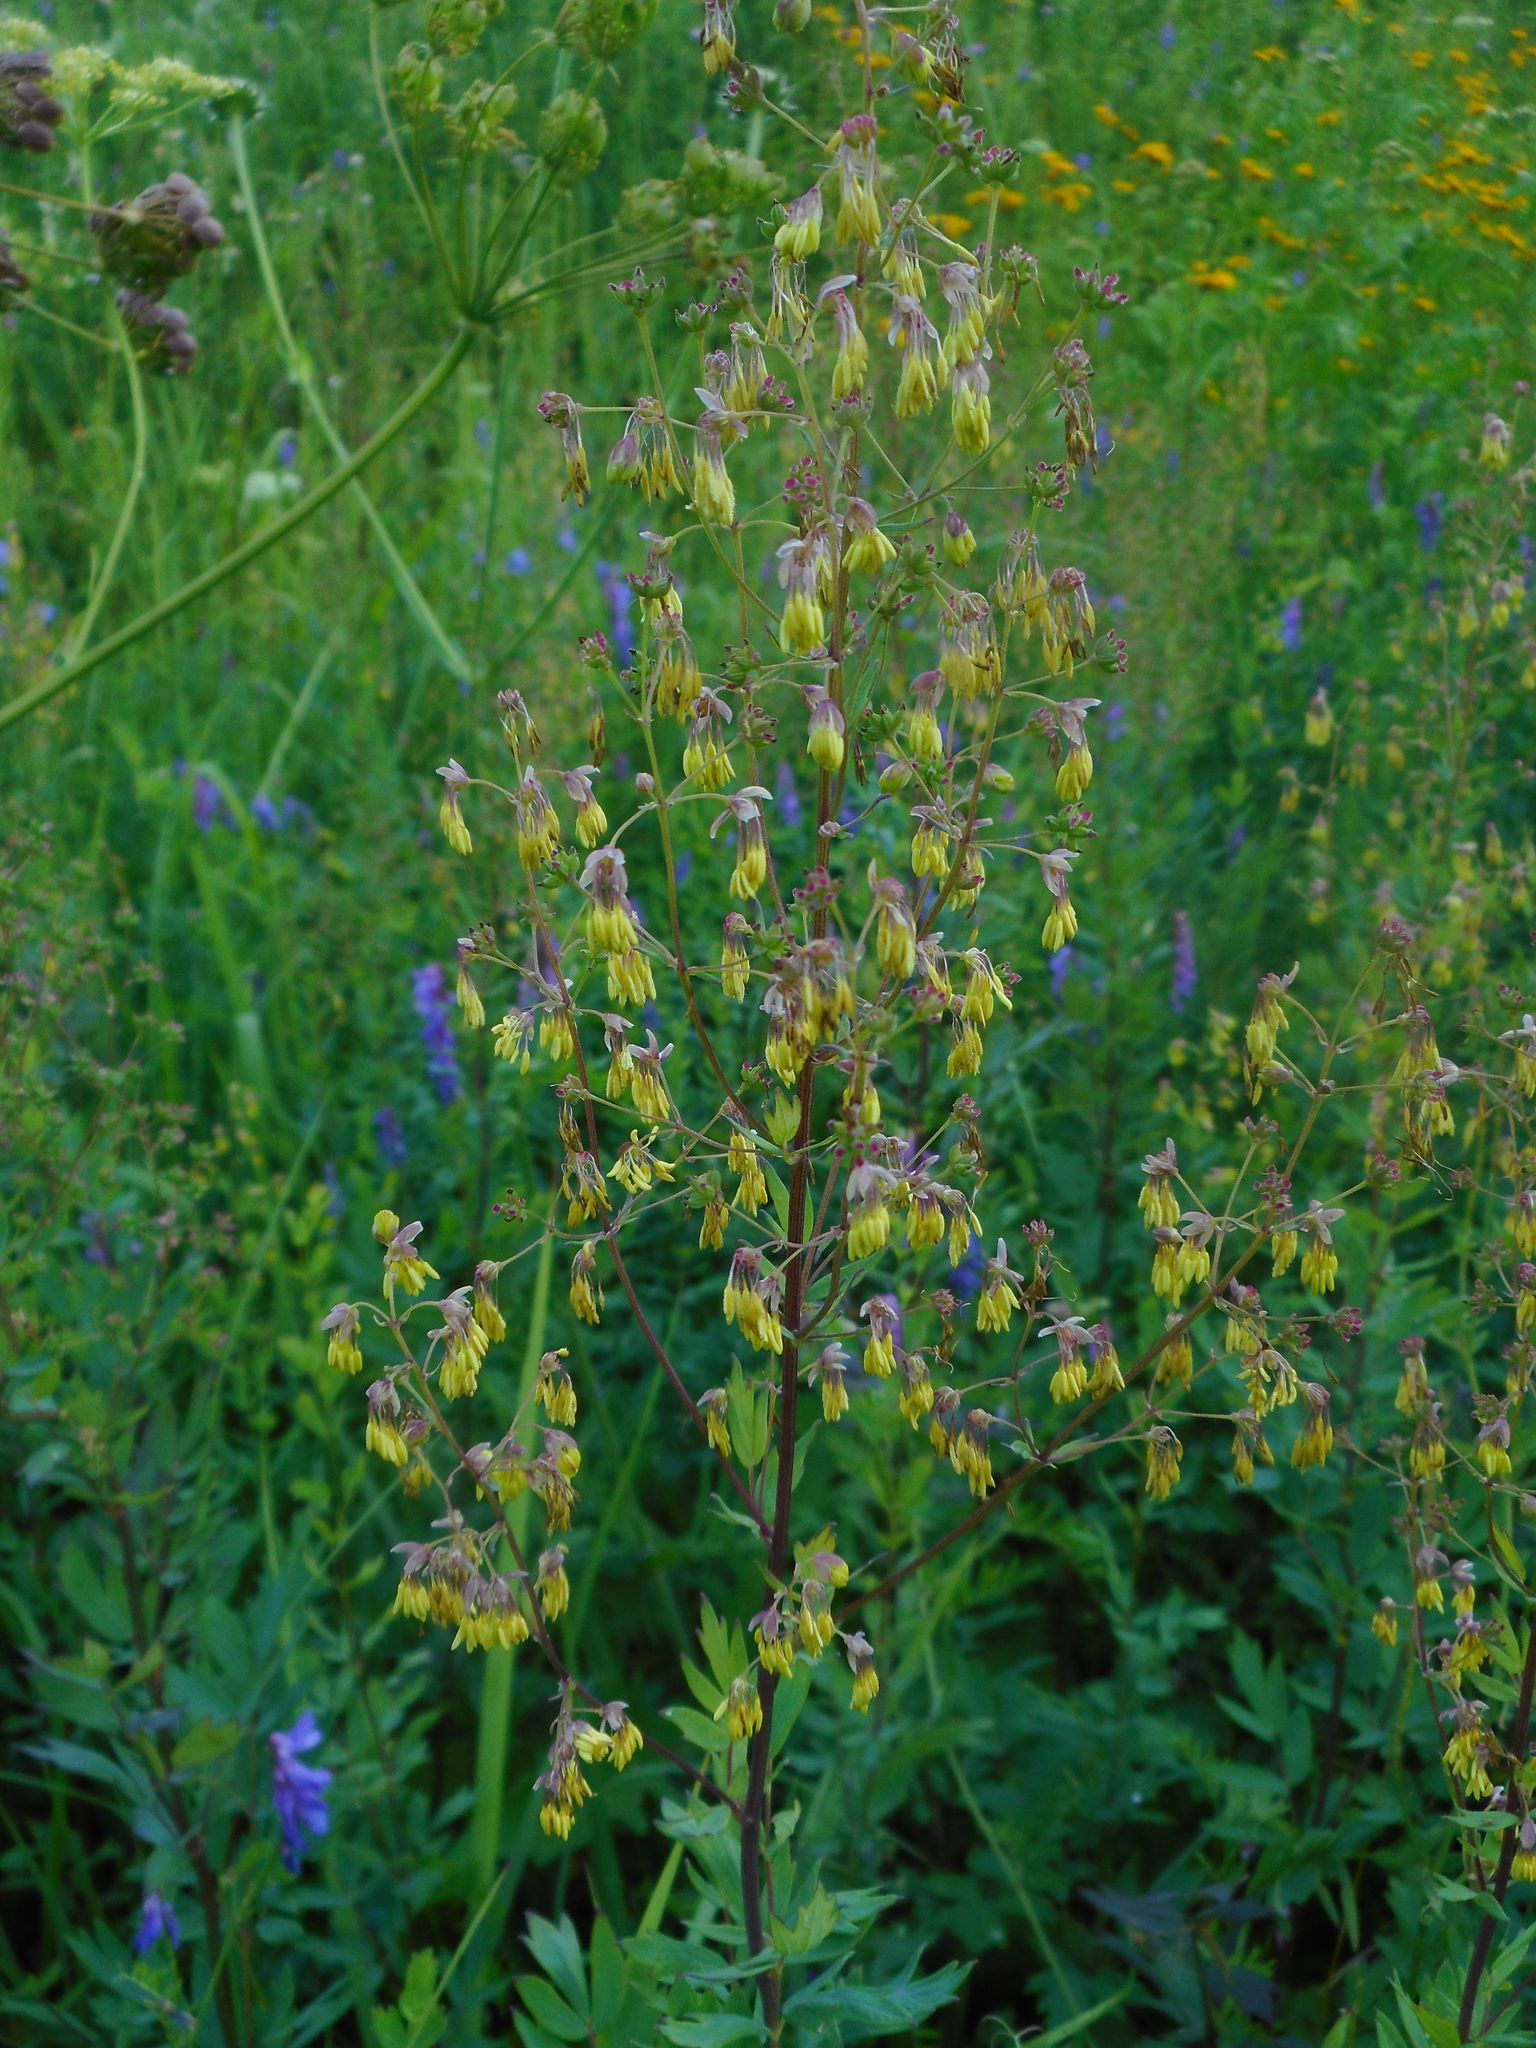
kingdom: Plantae
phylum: Tracheophyta
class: Magnoliopsida
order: Ranunculales
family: Ranunculaceae
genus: Thalictrum
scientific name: Thalictrum simplex
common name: Small meadow-rue
